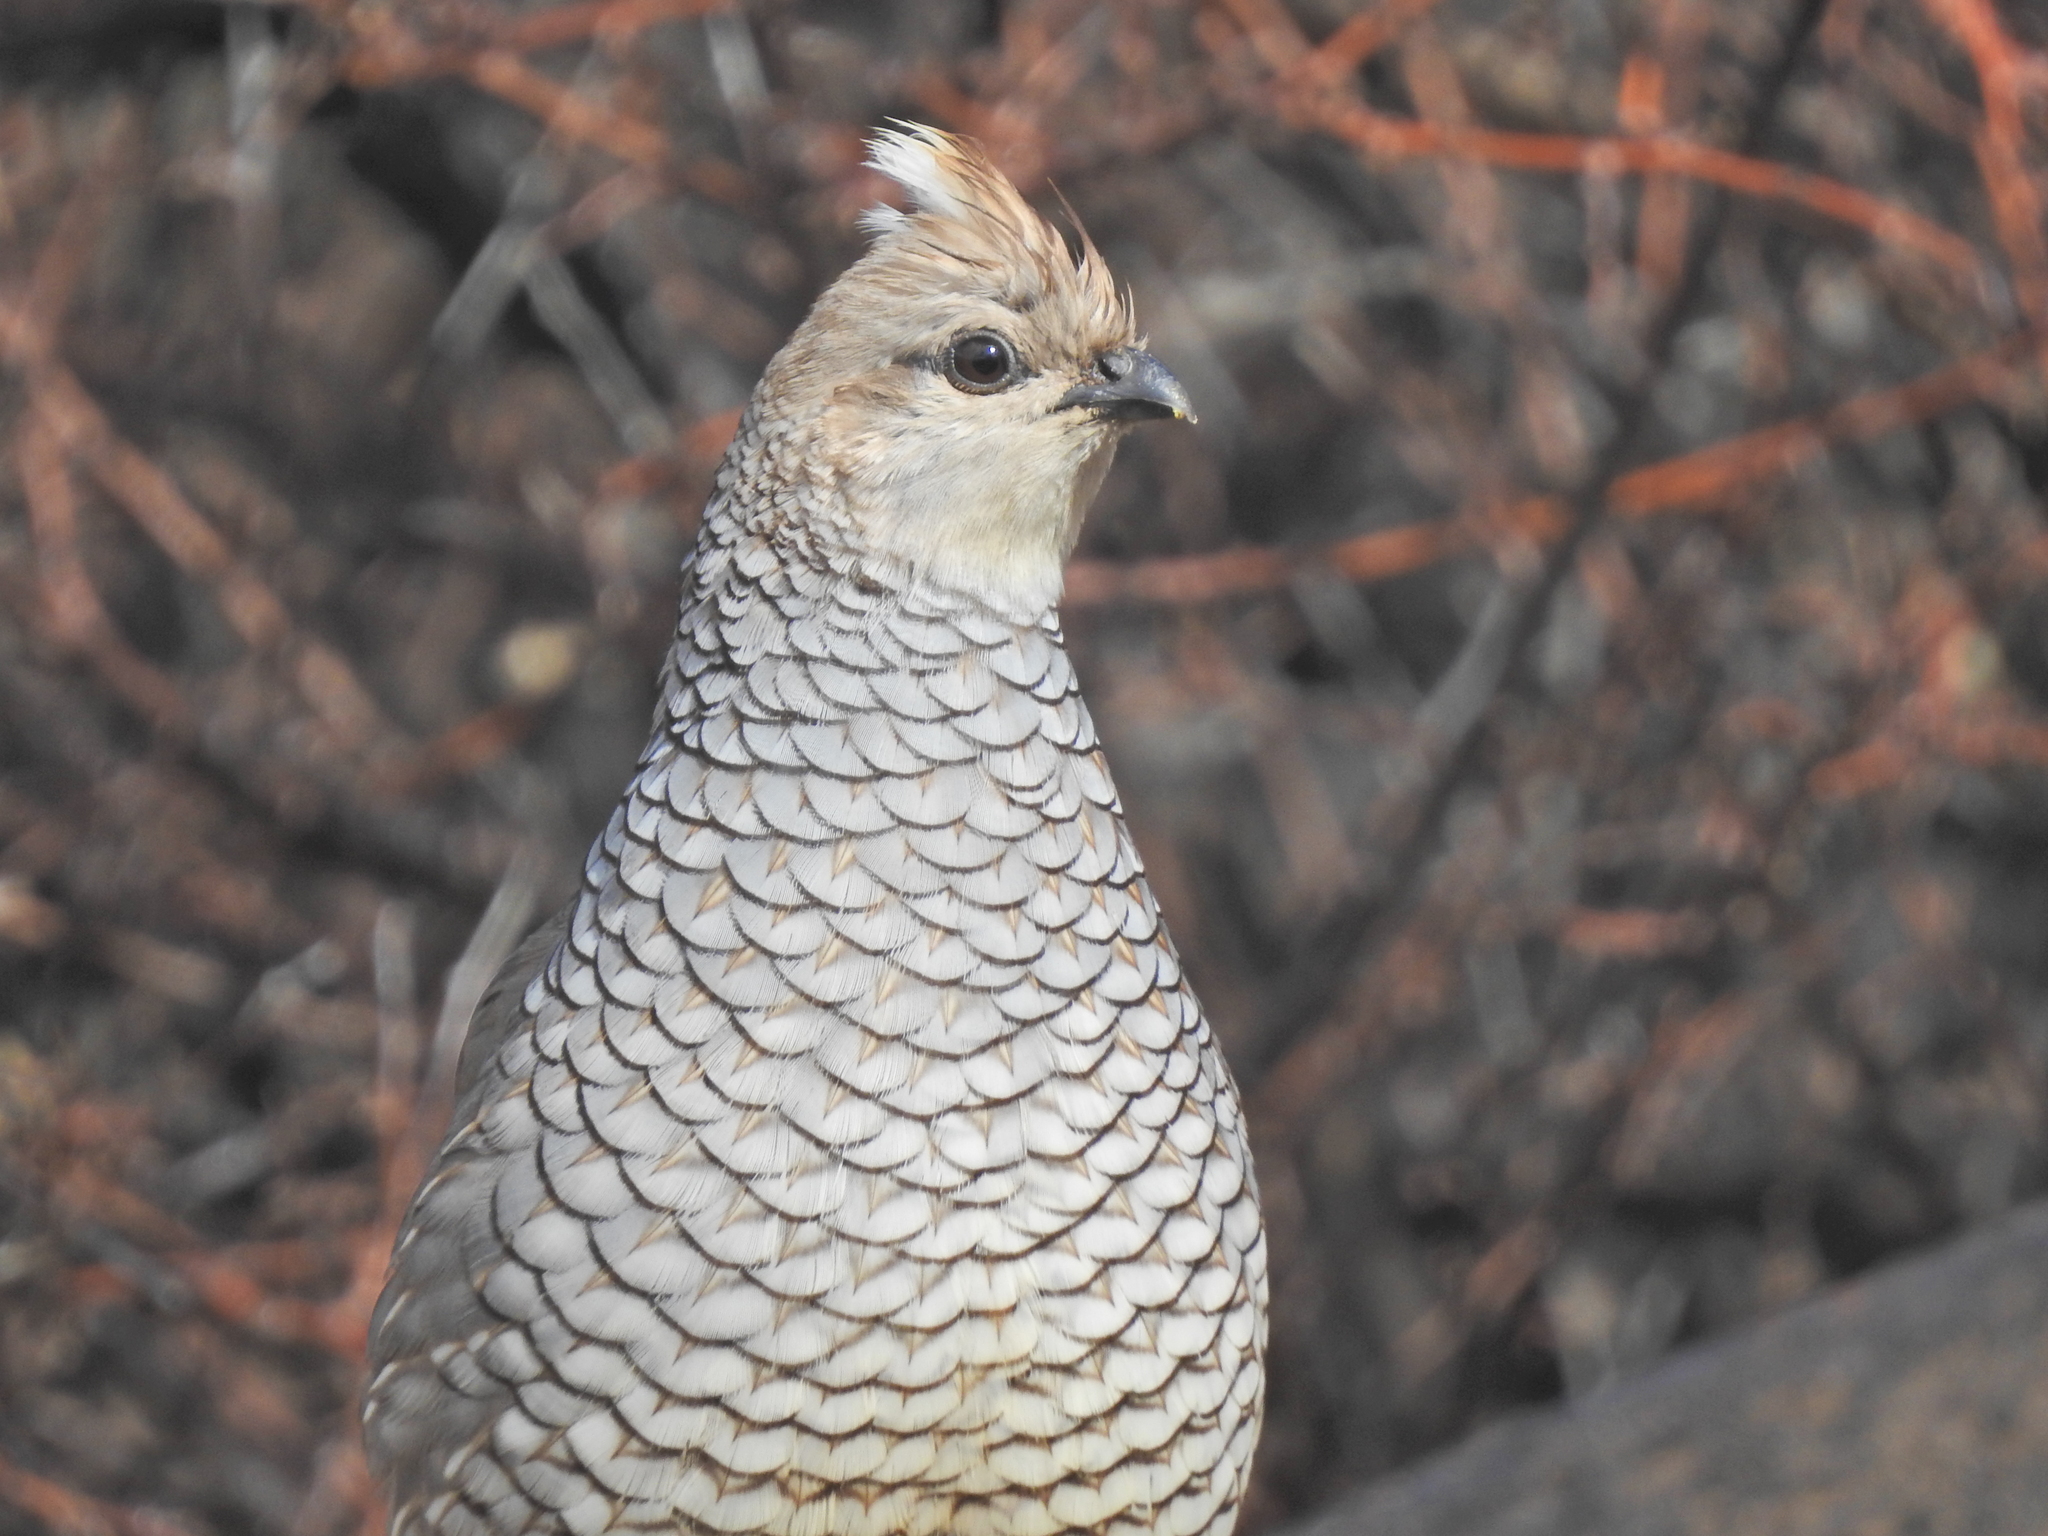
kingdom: Animalia
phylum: Chordata
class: Aves
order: Galliformes
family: Odontophoridae
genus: Callipepla
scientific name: Callipepla squamata
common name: Scaled quail
